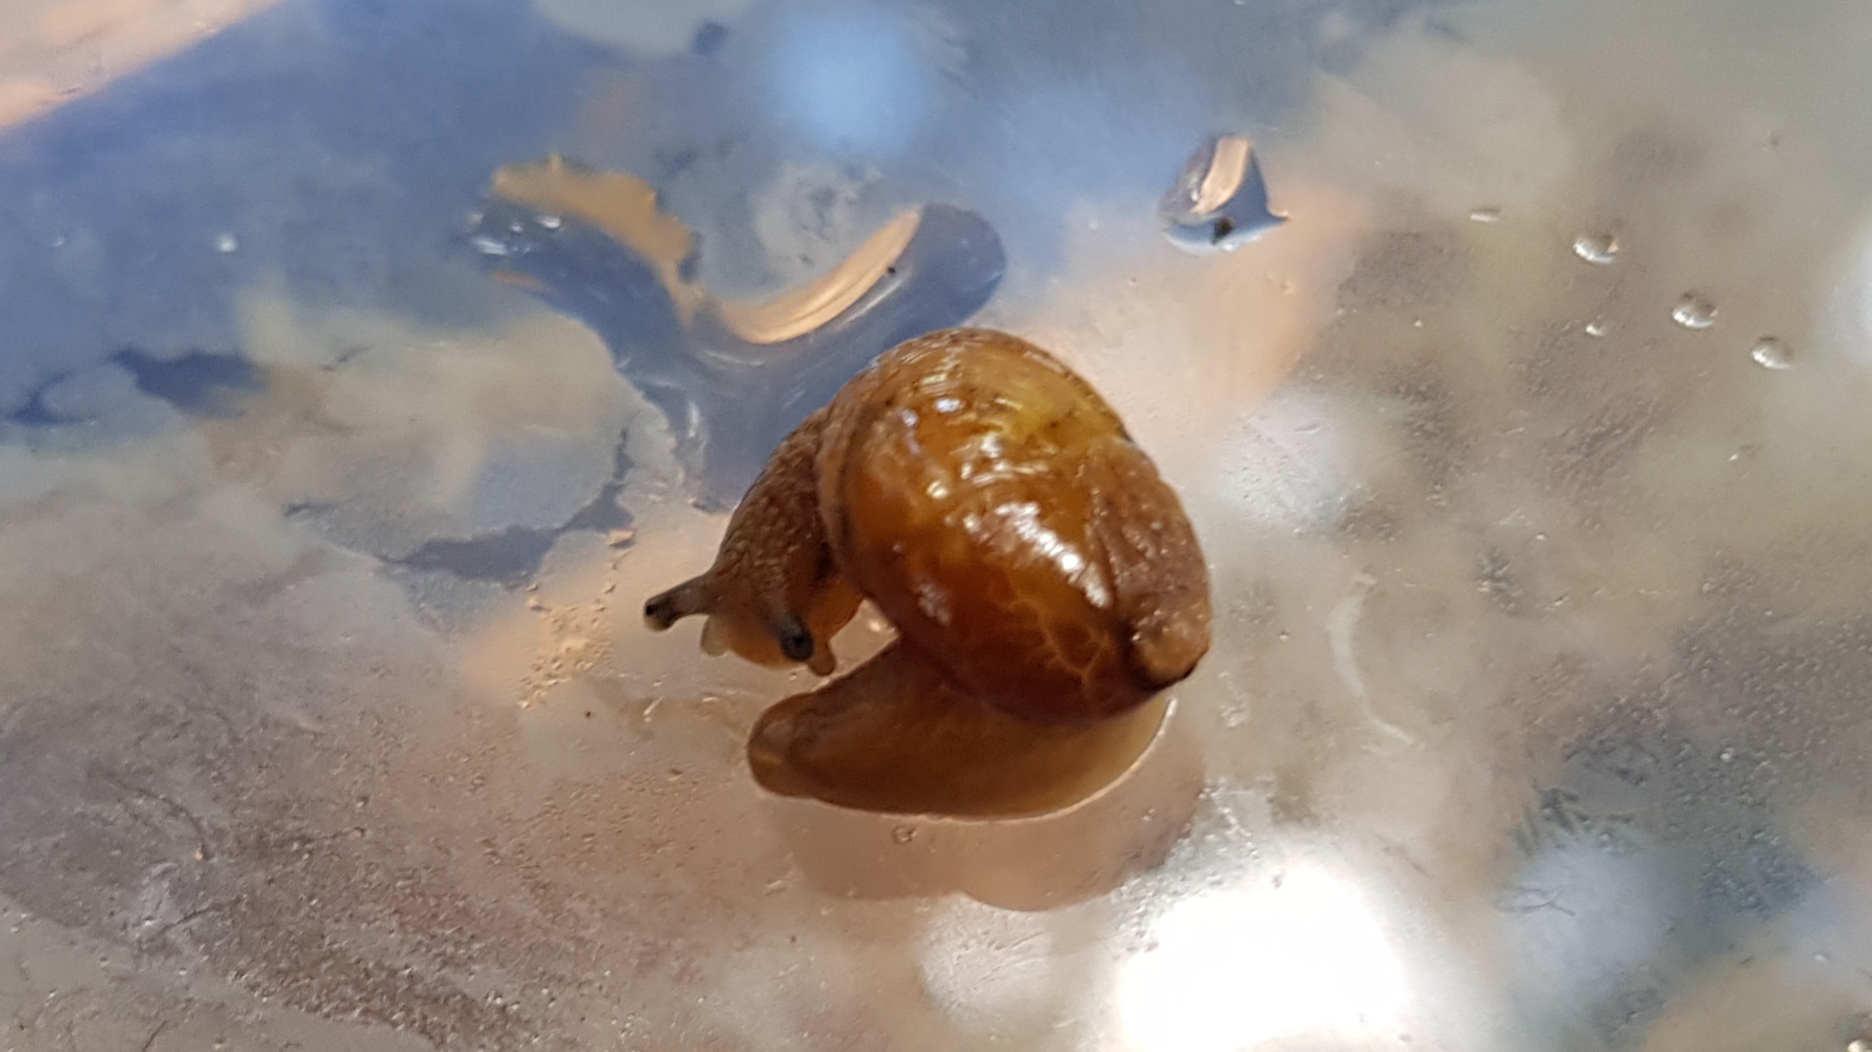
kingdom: Animalia
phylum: Mollusca
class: Gastropoda
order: Stylommatophora
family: Helicarionidae
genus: Ubiquitarion
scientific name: Ubiquitarion iridis
